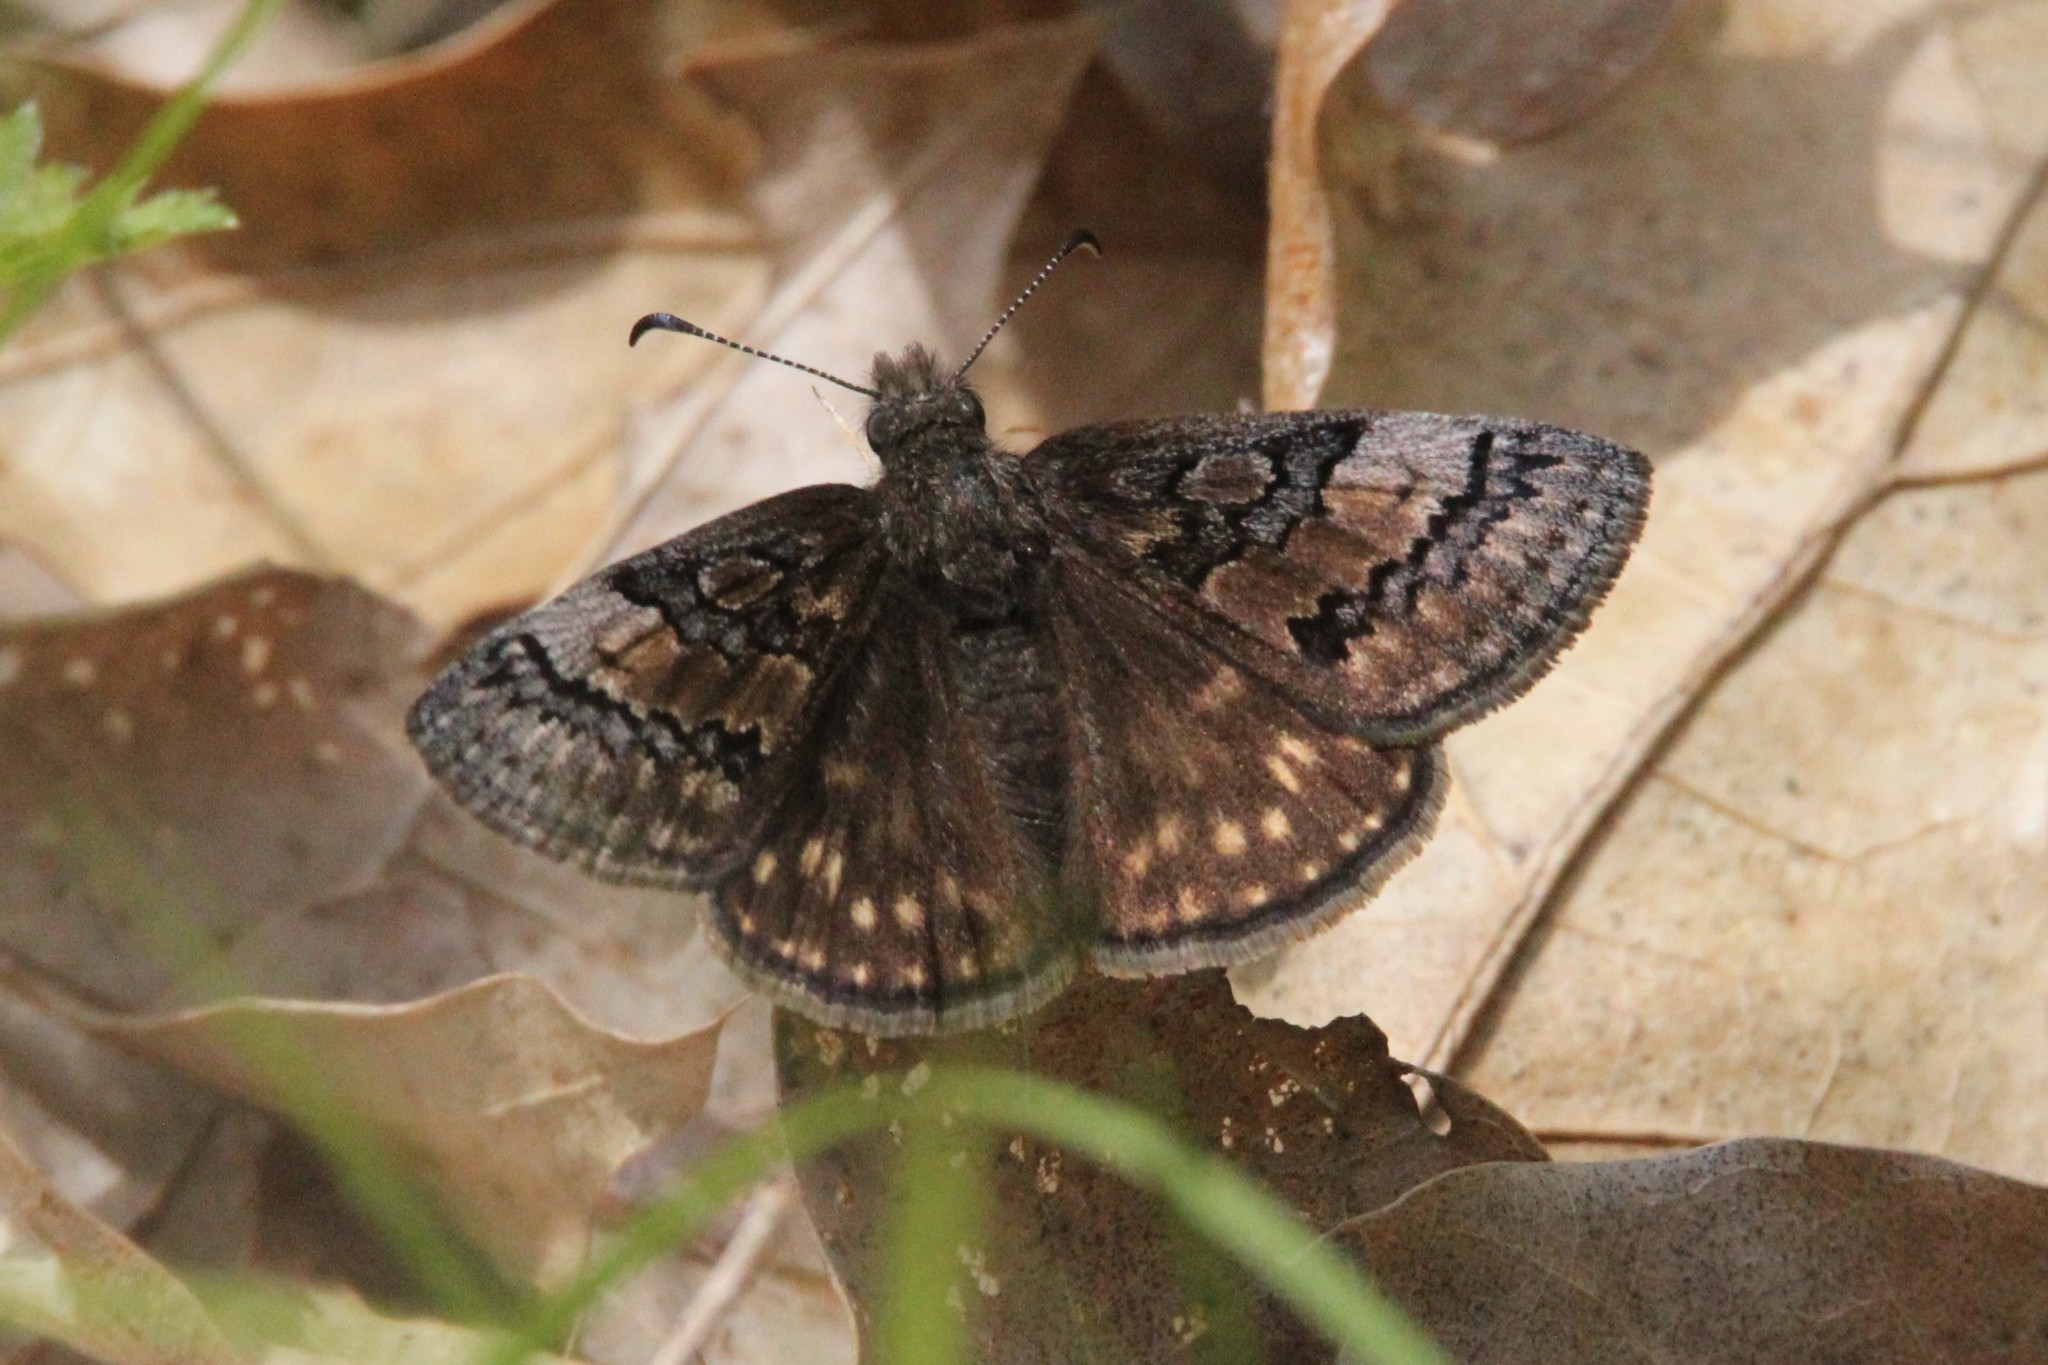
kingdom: Animalia
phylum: Arthropoda
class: Insecta
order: Lepidoptera
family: Hesperiidae
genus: Erynnis
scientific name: Erynnis brizo
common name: Sleepy duskywing
